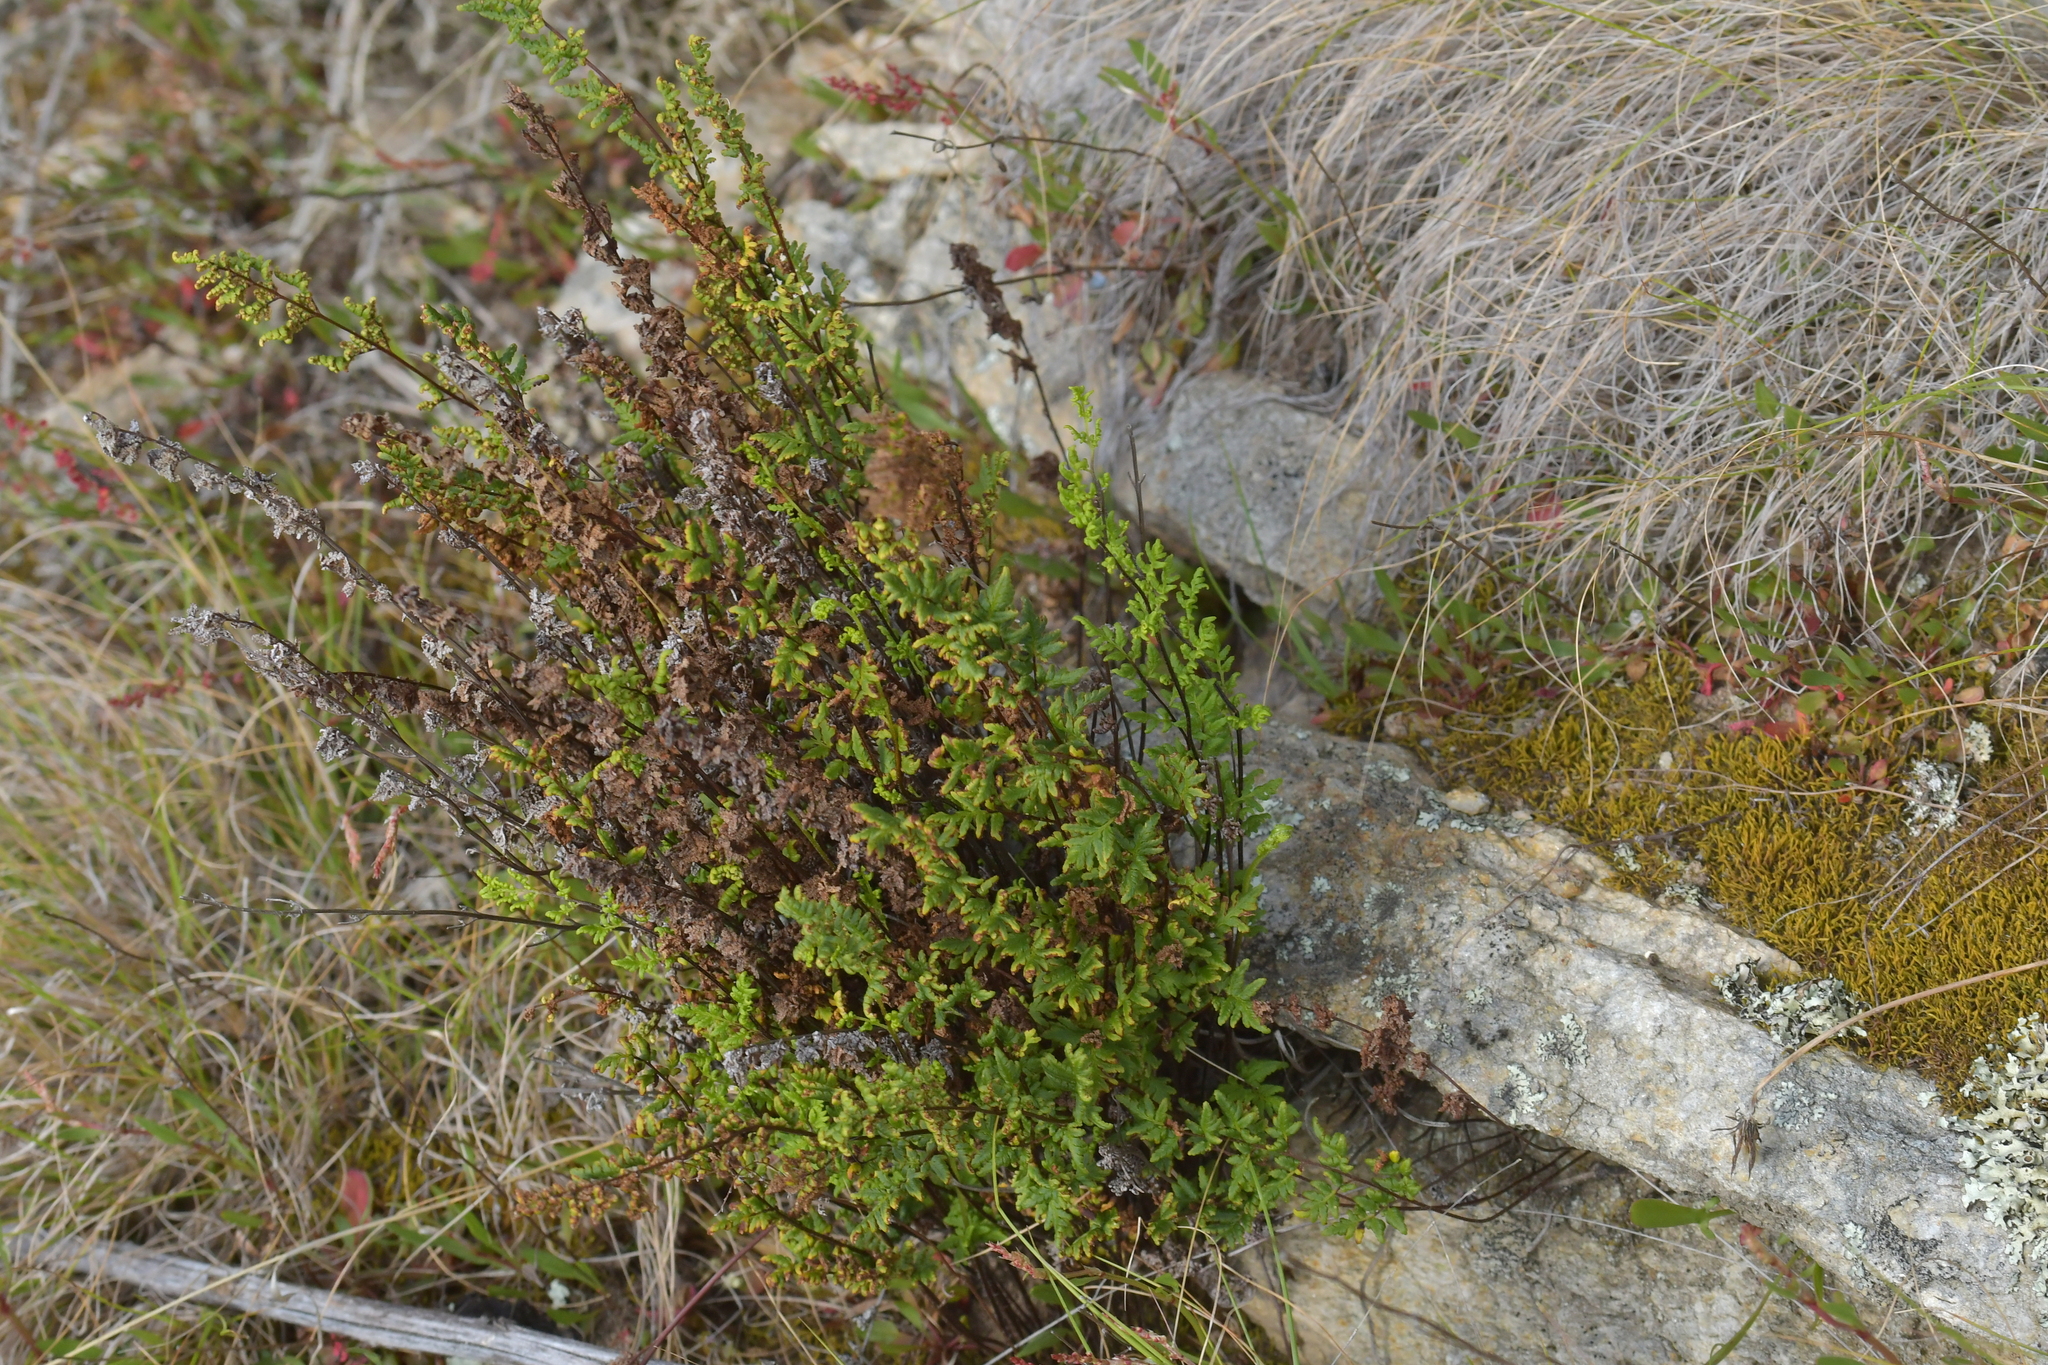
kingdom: Plantae
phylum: Tracheophyta
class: Polypodiopsida
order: Polypodiales
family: Pteridaceae
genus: Cheilanthes
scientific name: Cheilanthes sieberi
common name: Mulga fern
